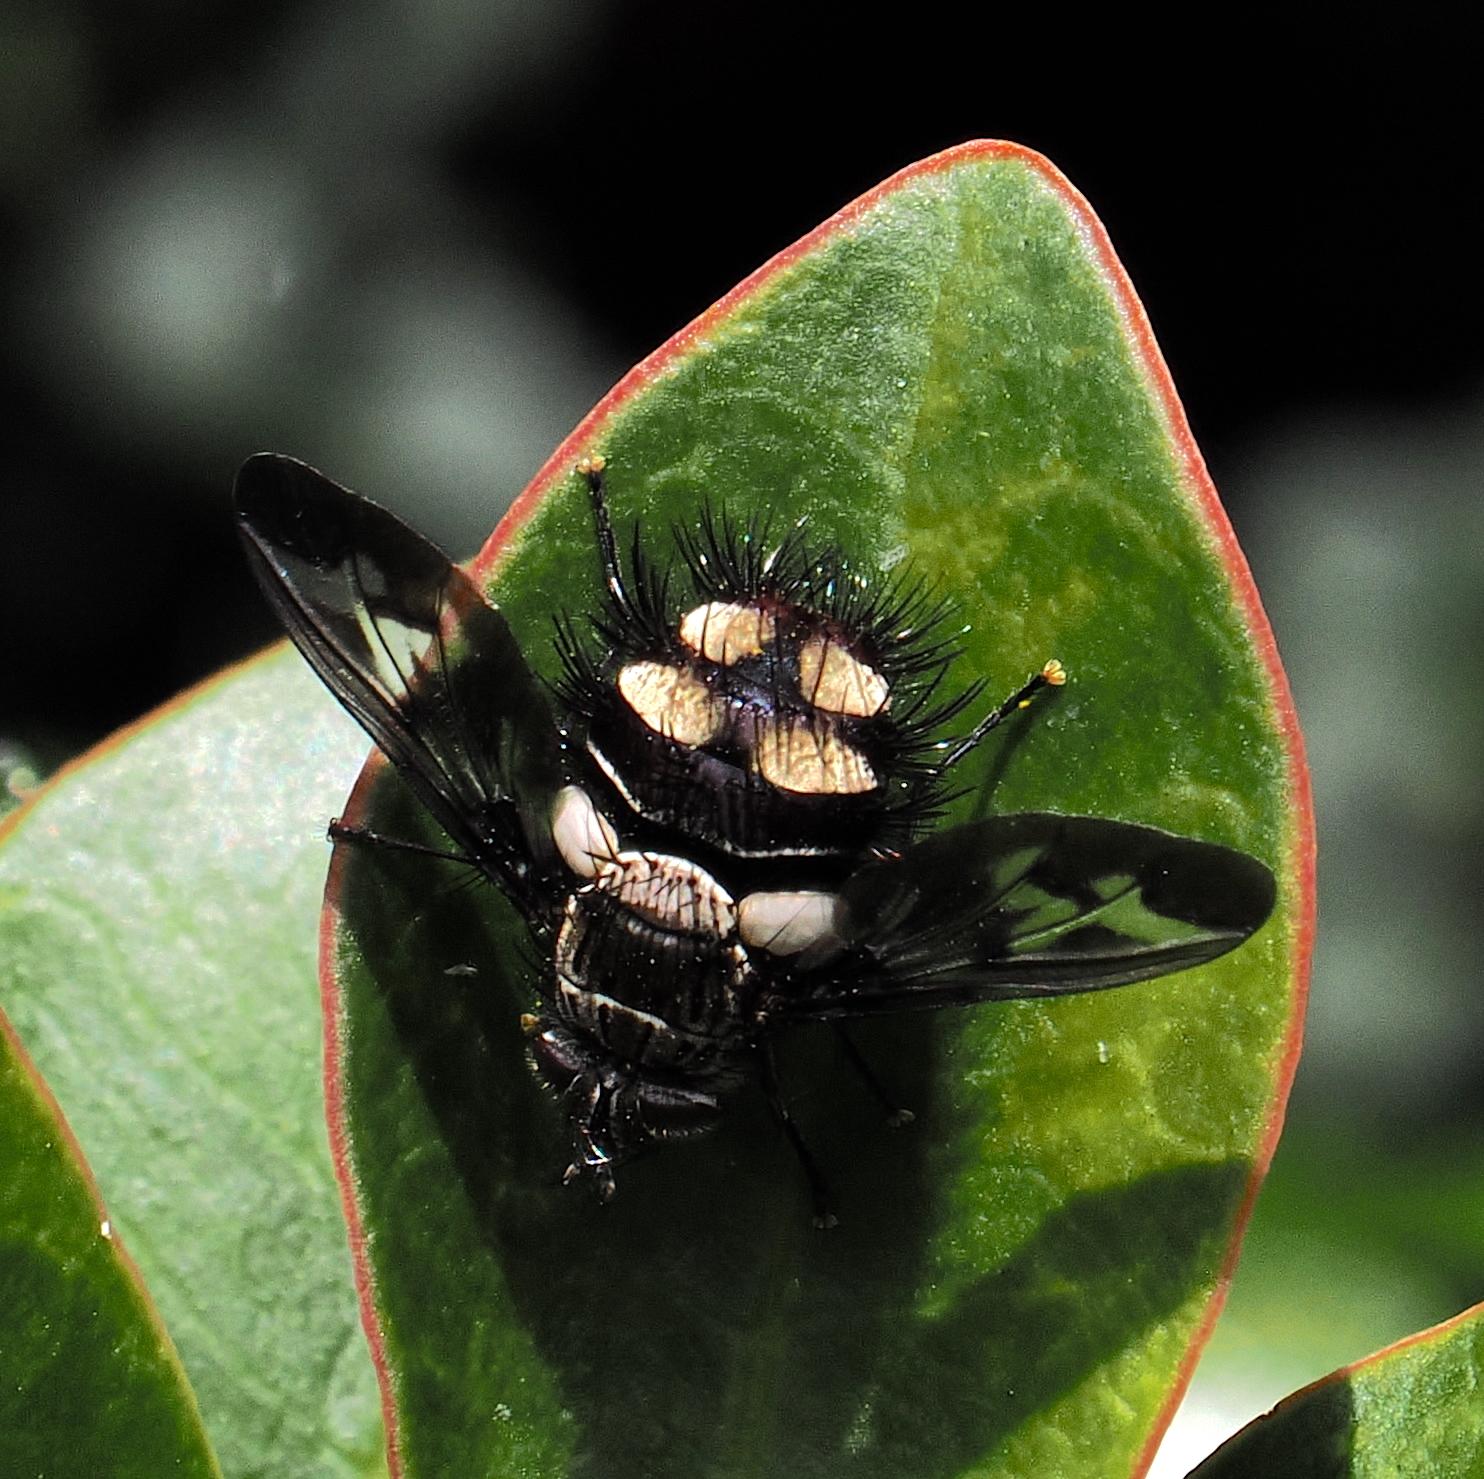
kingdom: Animalia
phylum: Arthropoda
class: Insecta
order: Diptera
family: Tachinidae
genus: Echinopyrrhosia
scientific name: Echinopyrrhosia pictipennis
